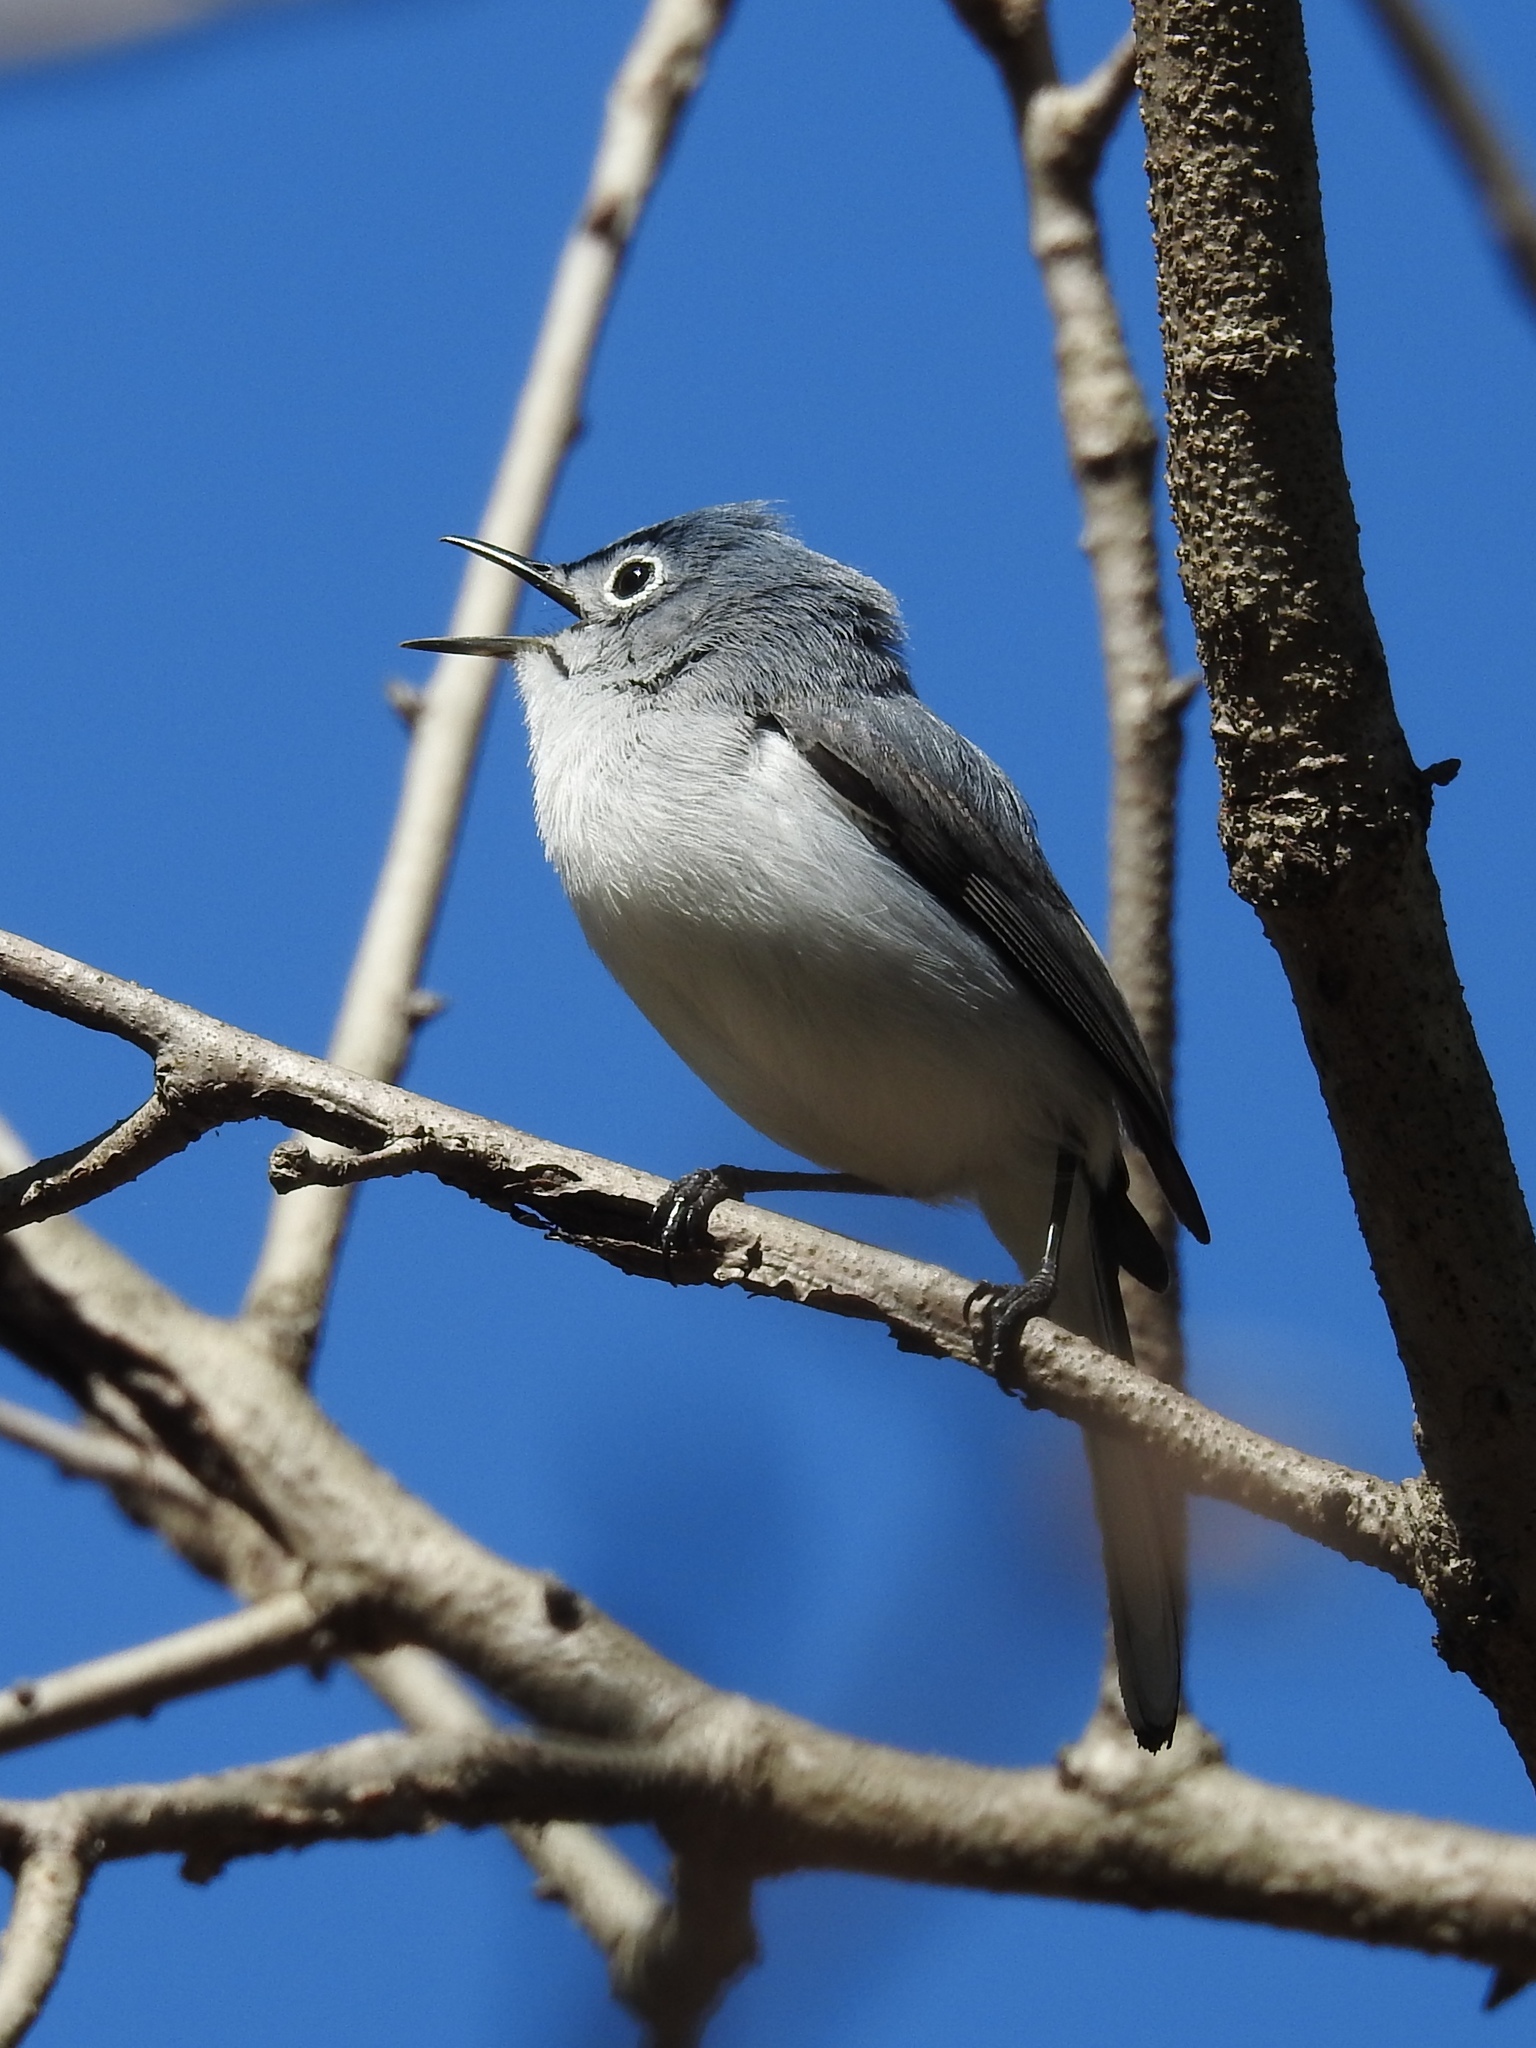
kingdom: Animalia
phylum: Chordata
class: Aves
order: Passeriformes
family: Polioptilidae
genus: Polioptila
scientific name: Polioptila caerulea
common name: Blue-gray gnatcatcher
